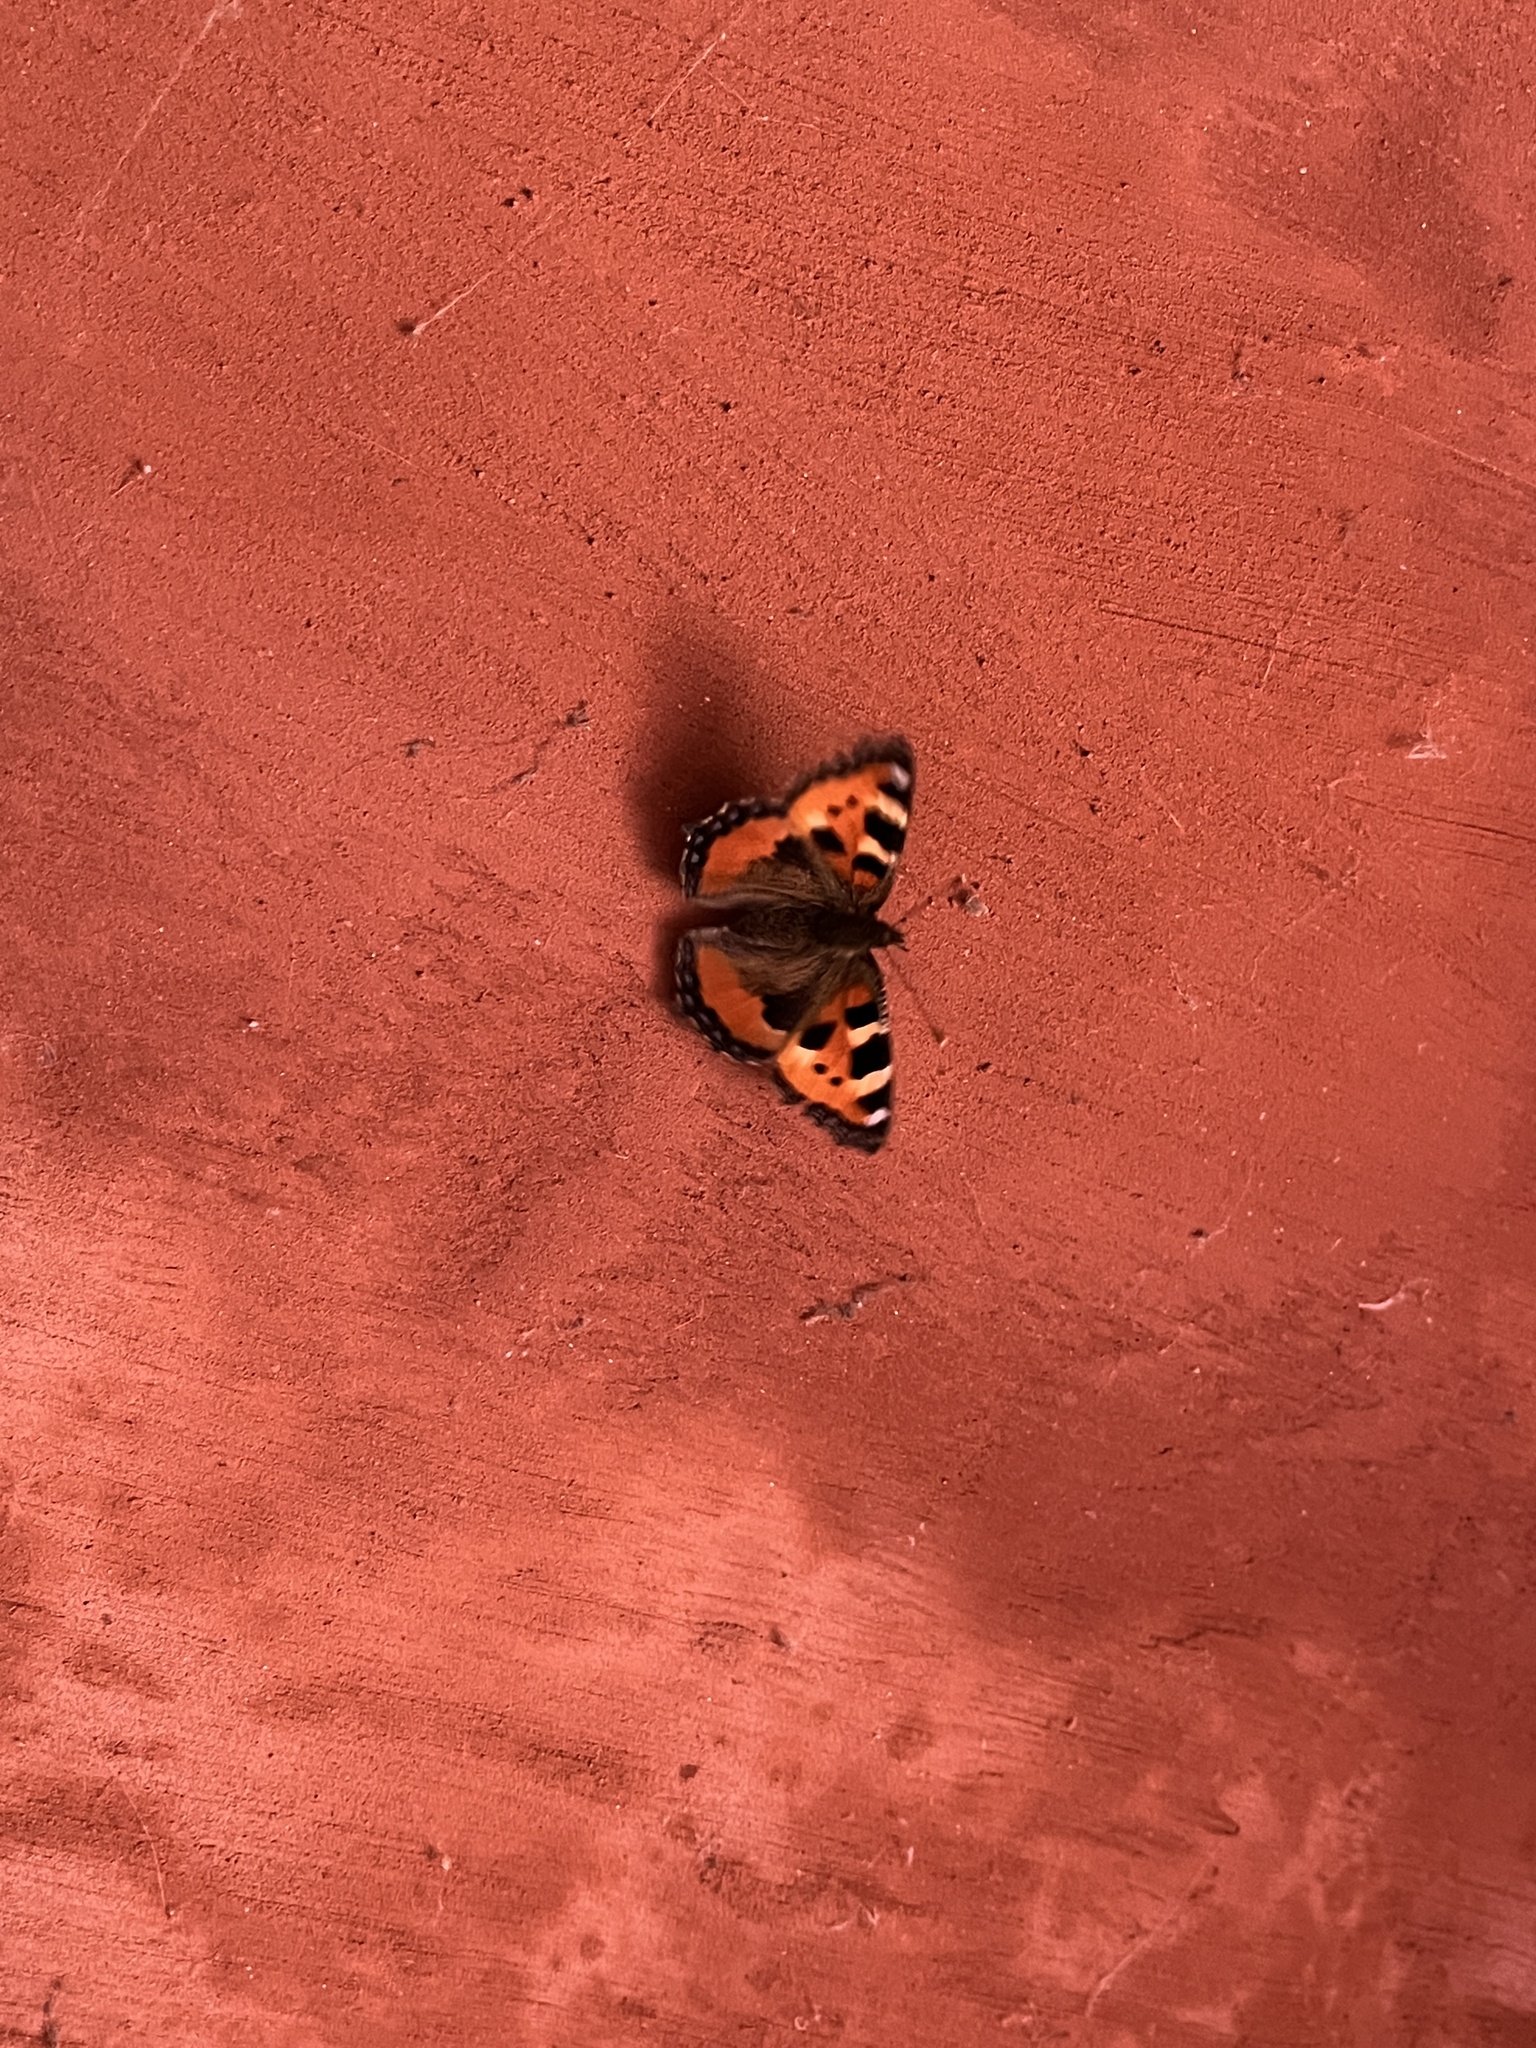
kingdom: Animalia
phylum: Arthropoda
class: Insecta
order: Lepidoptera
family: Nymphalidae
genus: Aglais
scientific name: Aglais urticae
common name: Small tortoiseshell
